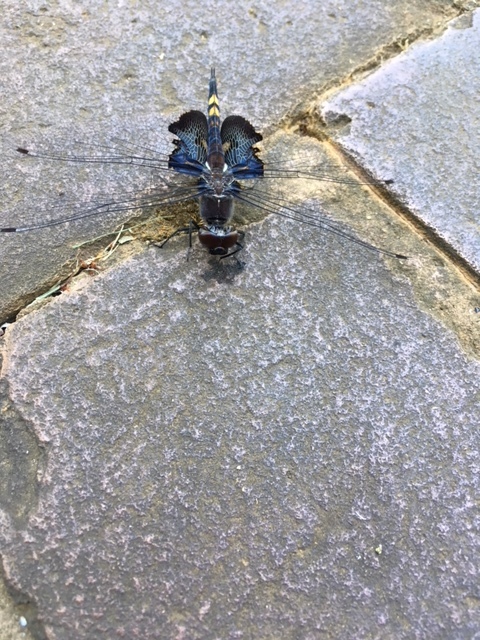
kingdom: Animalia
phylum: Arthropoda
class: Insecta
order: Odonata
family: Libellulidae
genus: Tramea
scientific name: Tramea lacerata
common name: Black saddlebags
